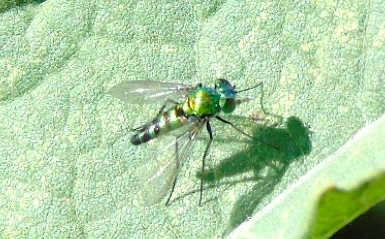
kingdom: Animalia
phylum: Arthropoda
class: Insecta
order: Diptera
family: Dolichopodidae
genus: Condylostylus
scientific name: Condylostylus
